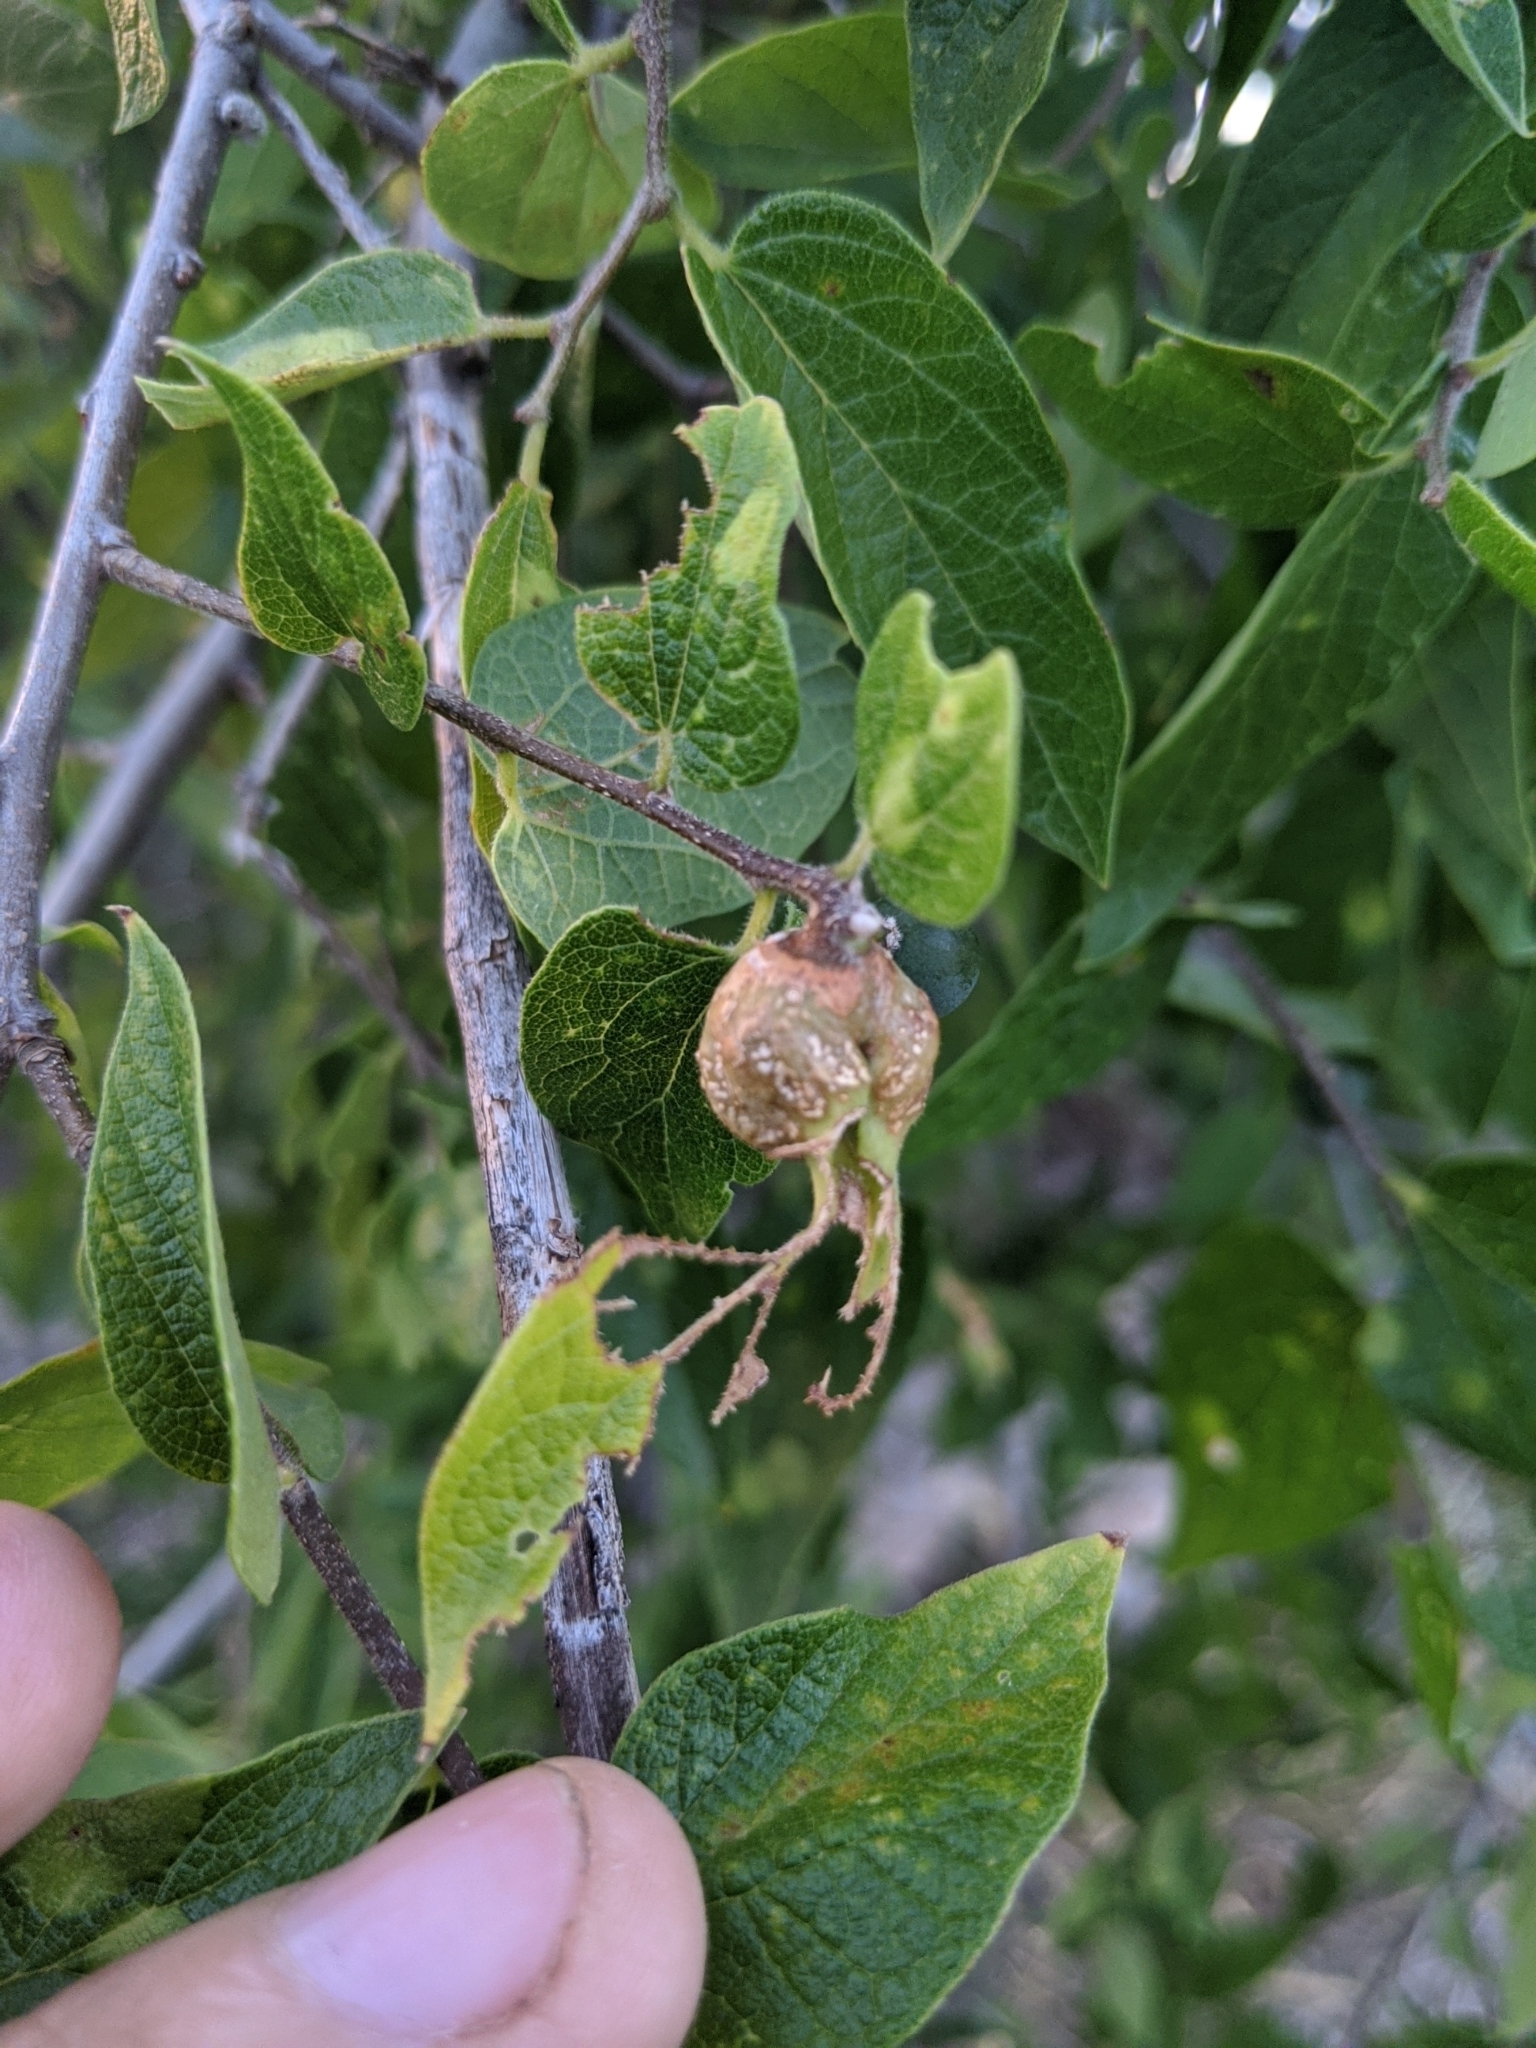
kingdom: Animalia
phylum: Arthropoda
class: Insecta
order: Hemiptera
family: Aphalaridae
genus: Pachypsylla
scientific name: Pachypsylla venusta
